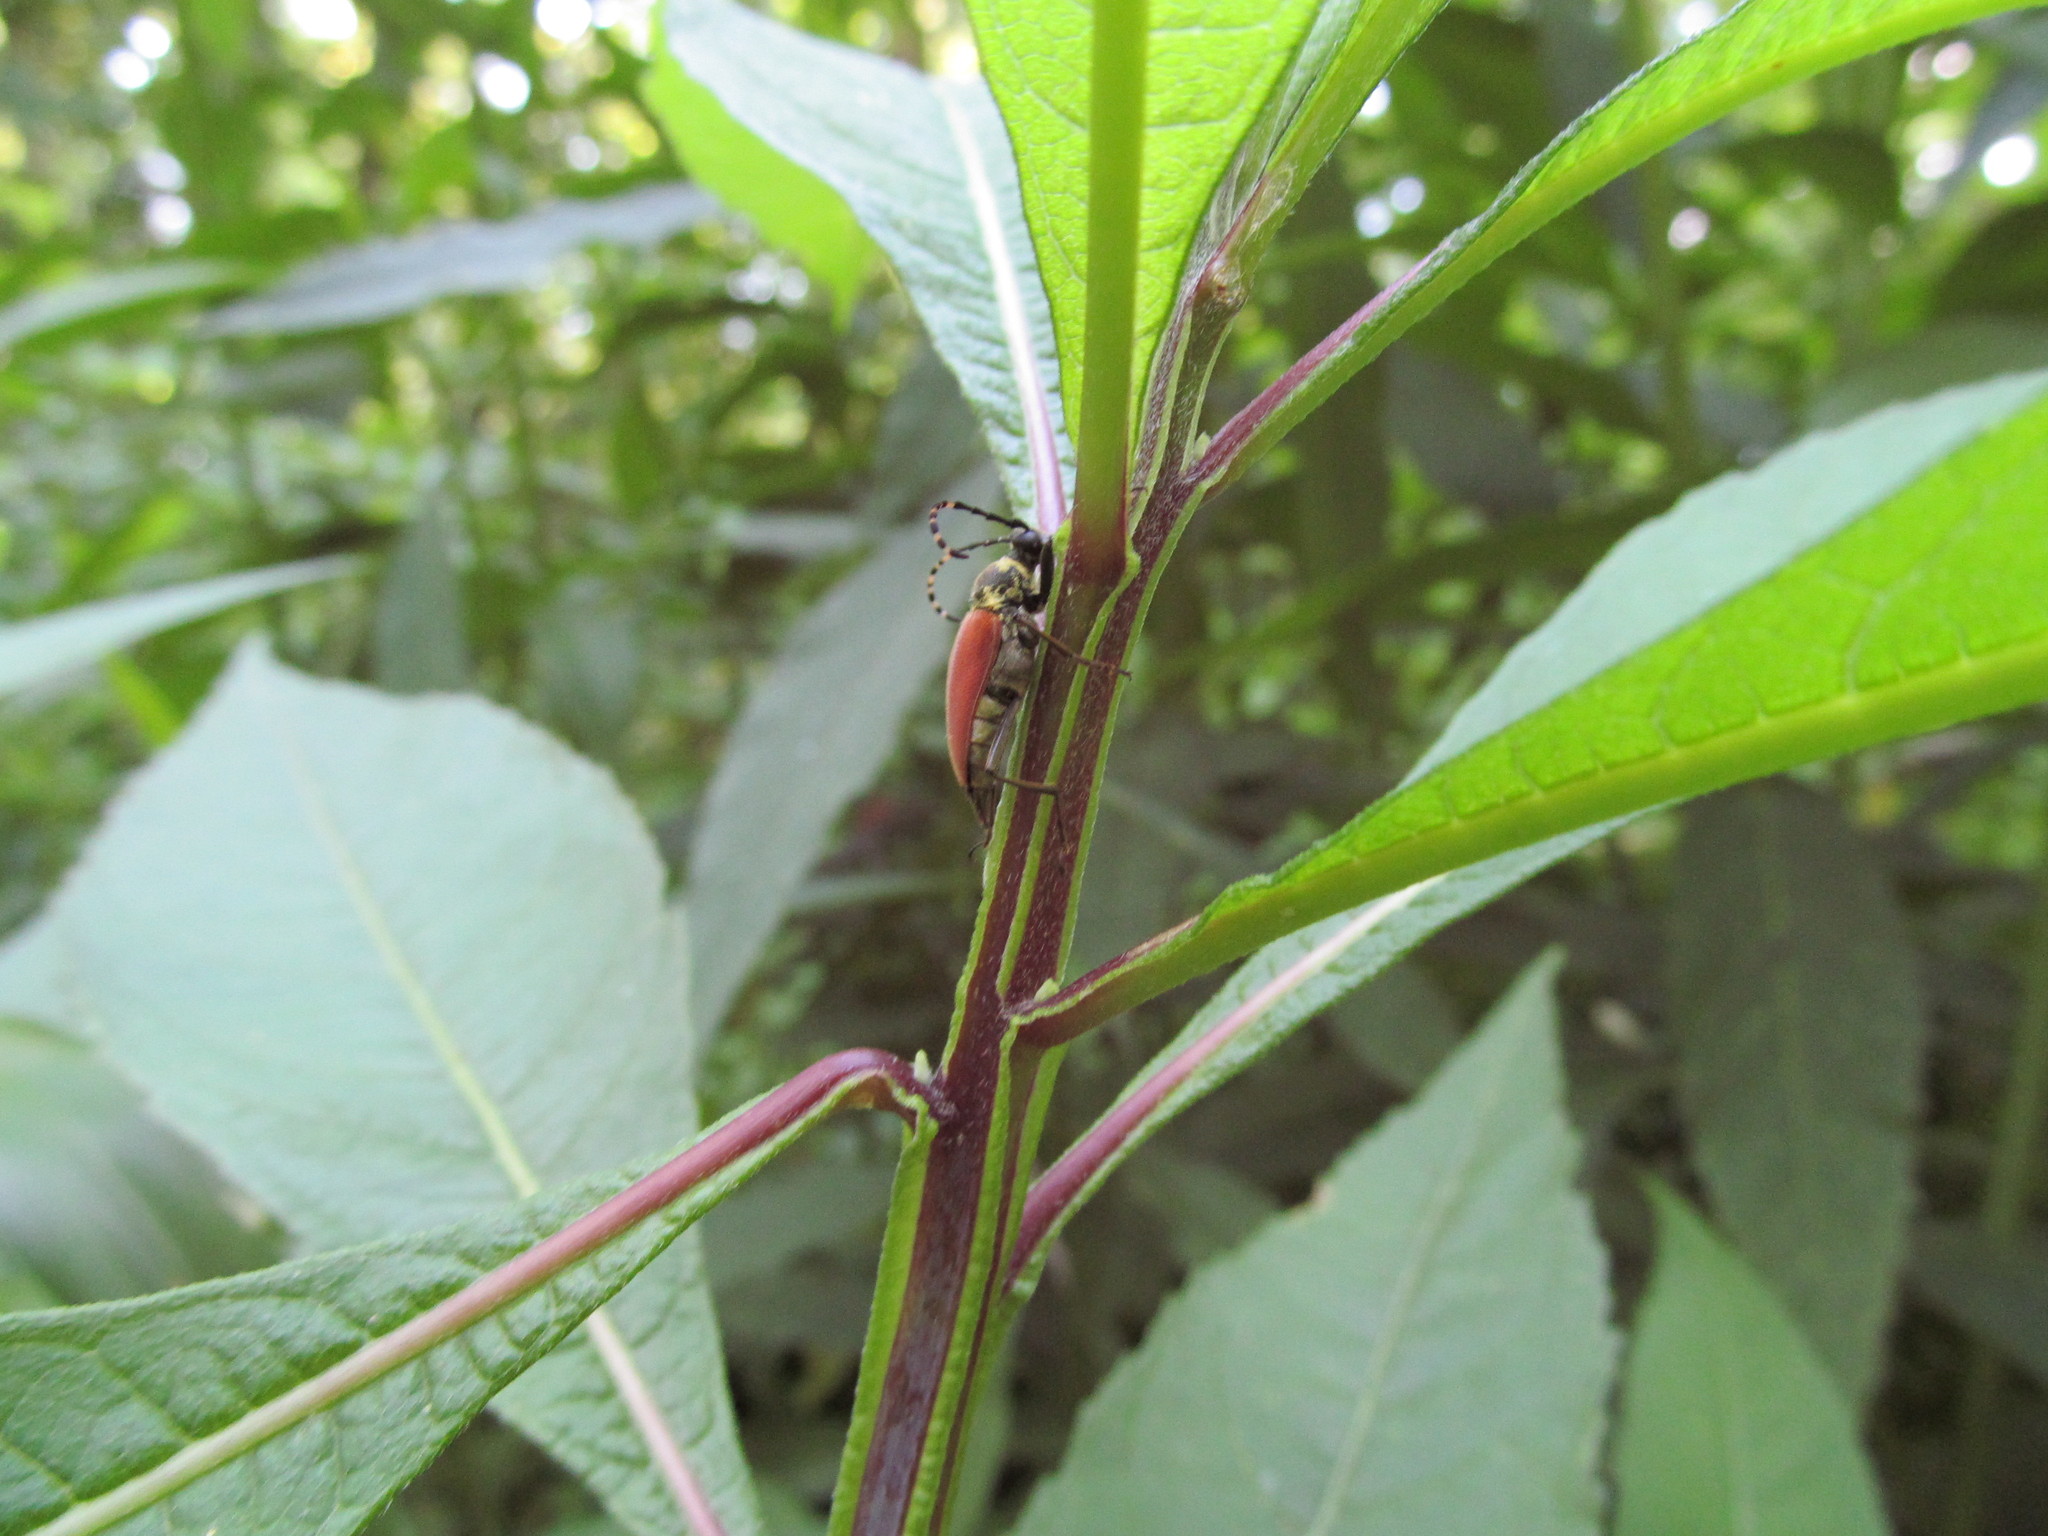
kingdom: Animalia
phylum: Arthropoda
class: Insecta
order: Coleoptera
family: Cerambycidae
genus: Brachyleptura
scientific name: Brachyleptura rubrica
